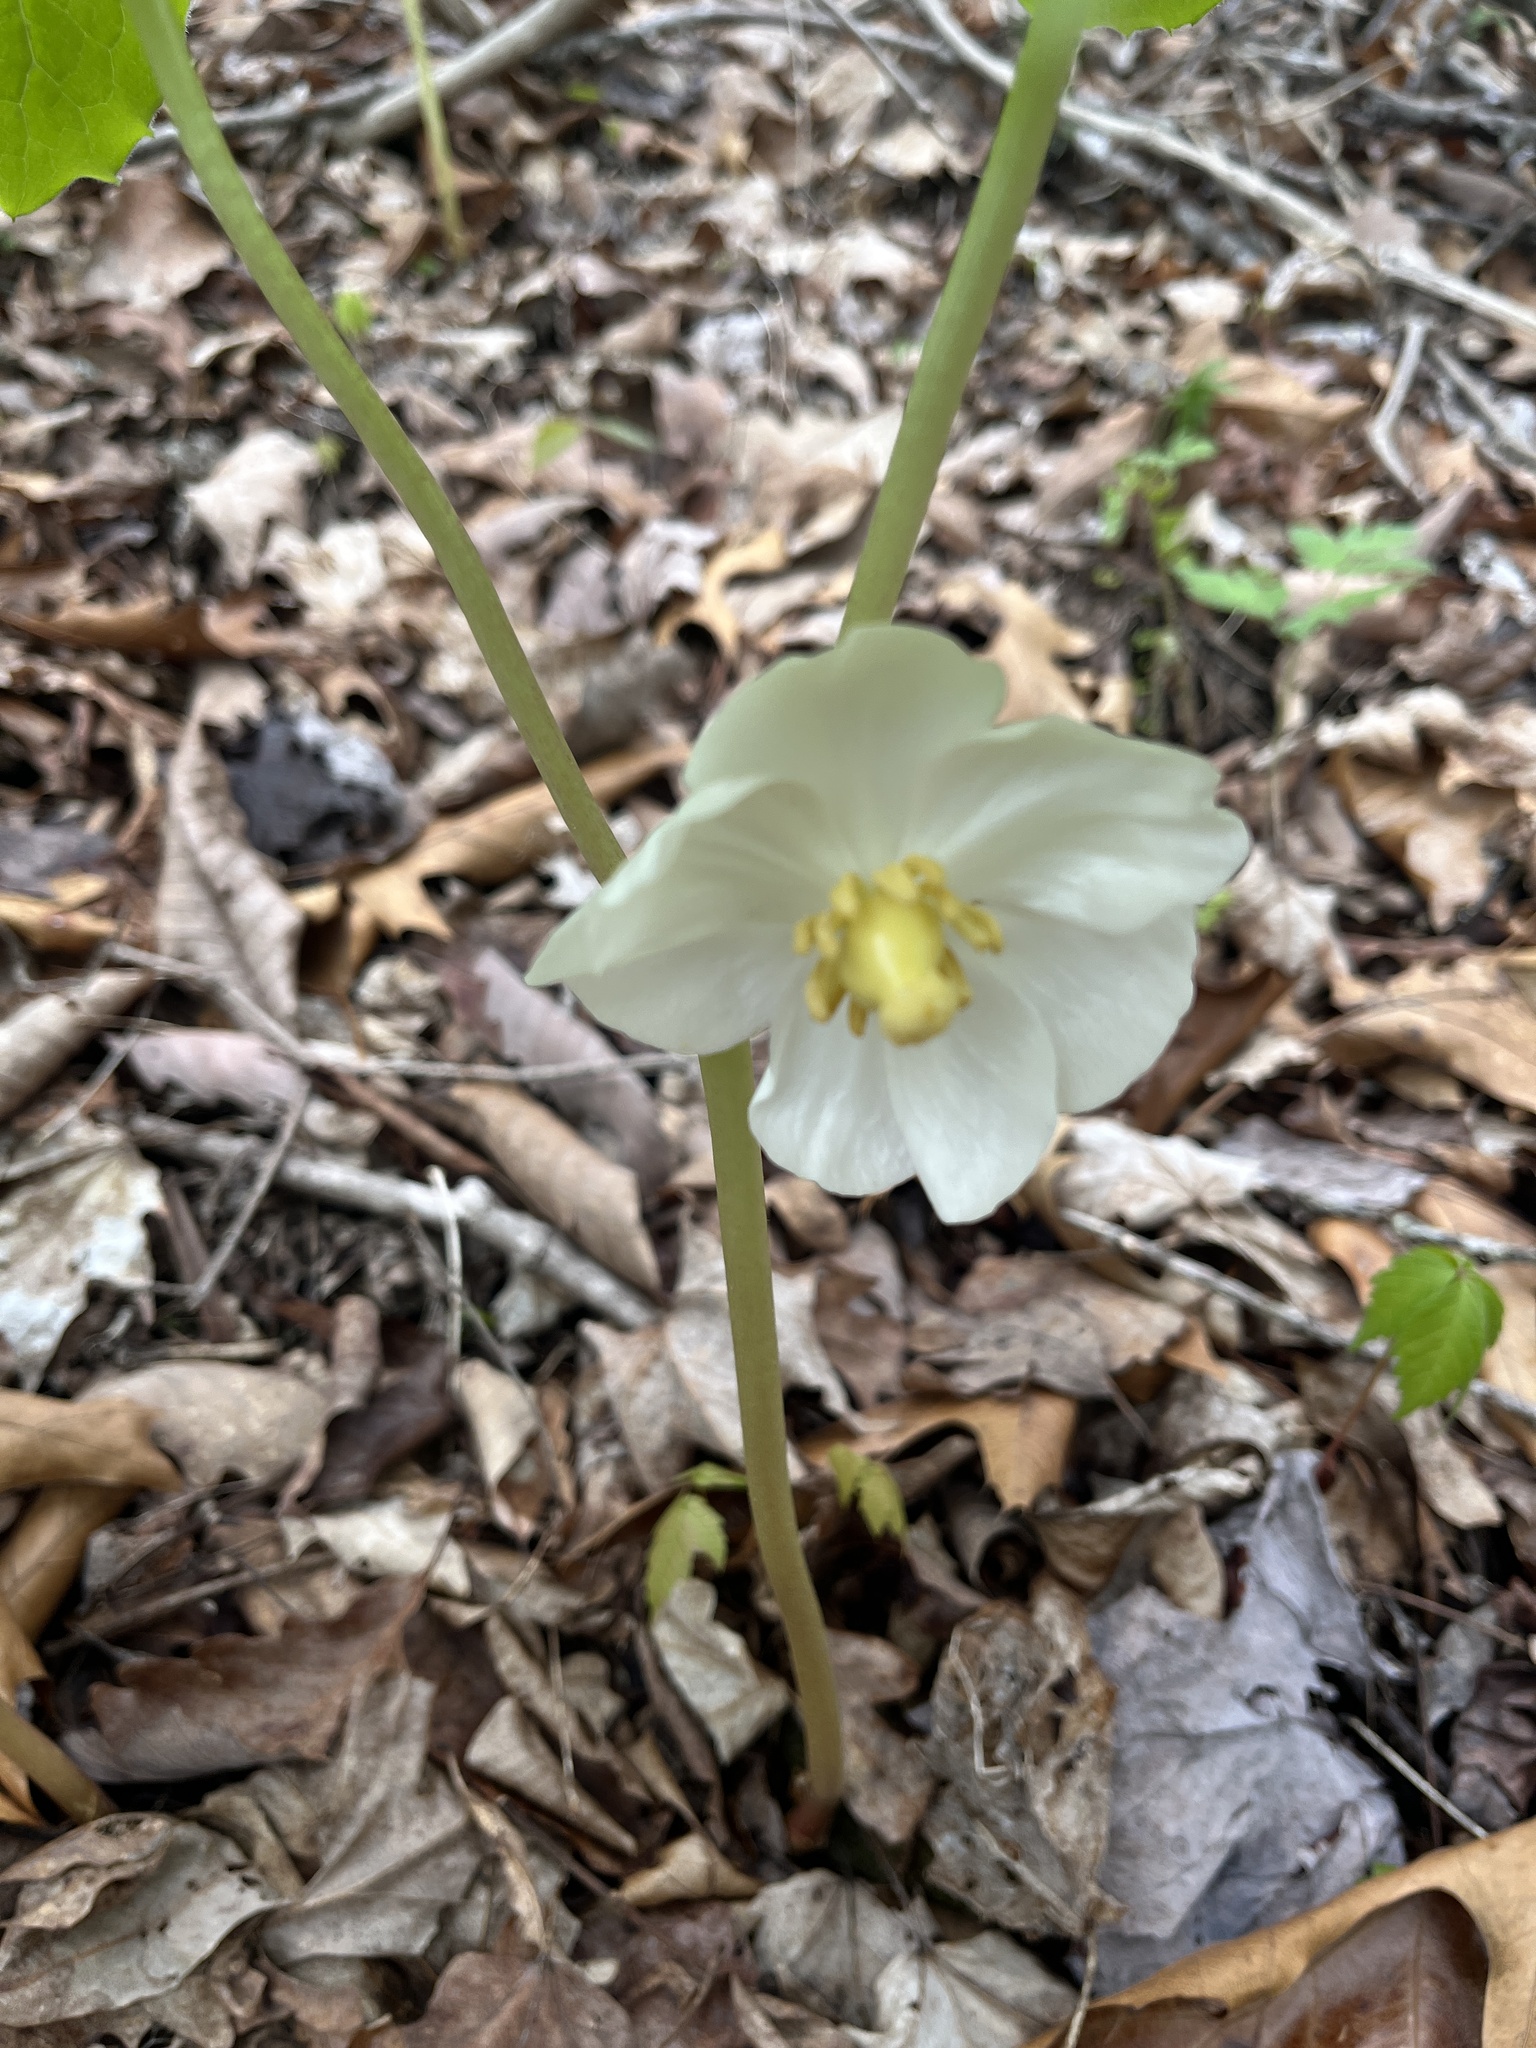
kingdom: Plantae
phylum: Tracheophyta
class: Magnoliopsida
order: Ranunculales
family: Berberidaceae
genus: Podophyllum
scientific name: Podophyllum peltatum
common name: Wild mandrake
